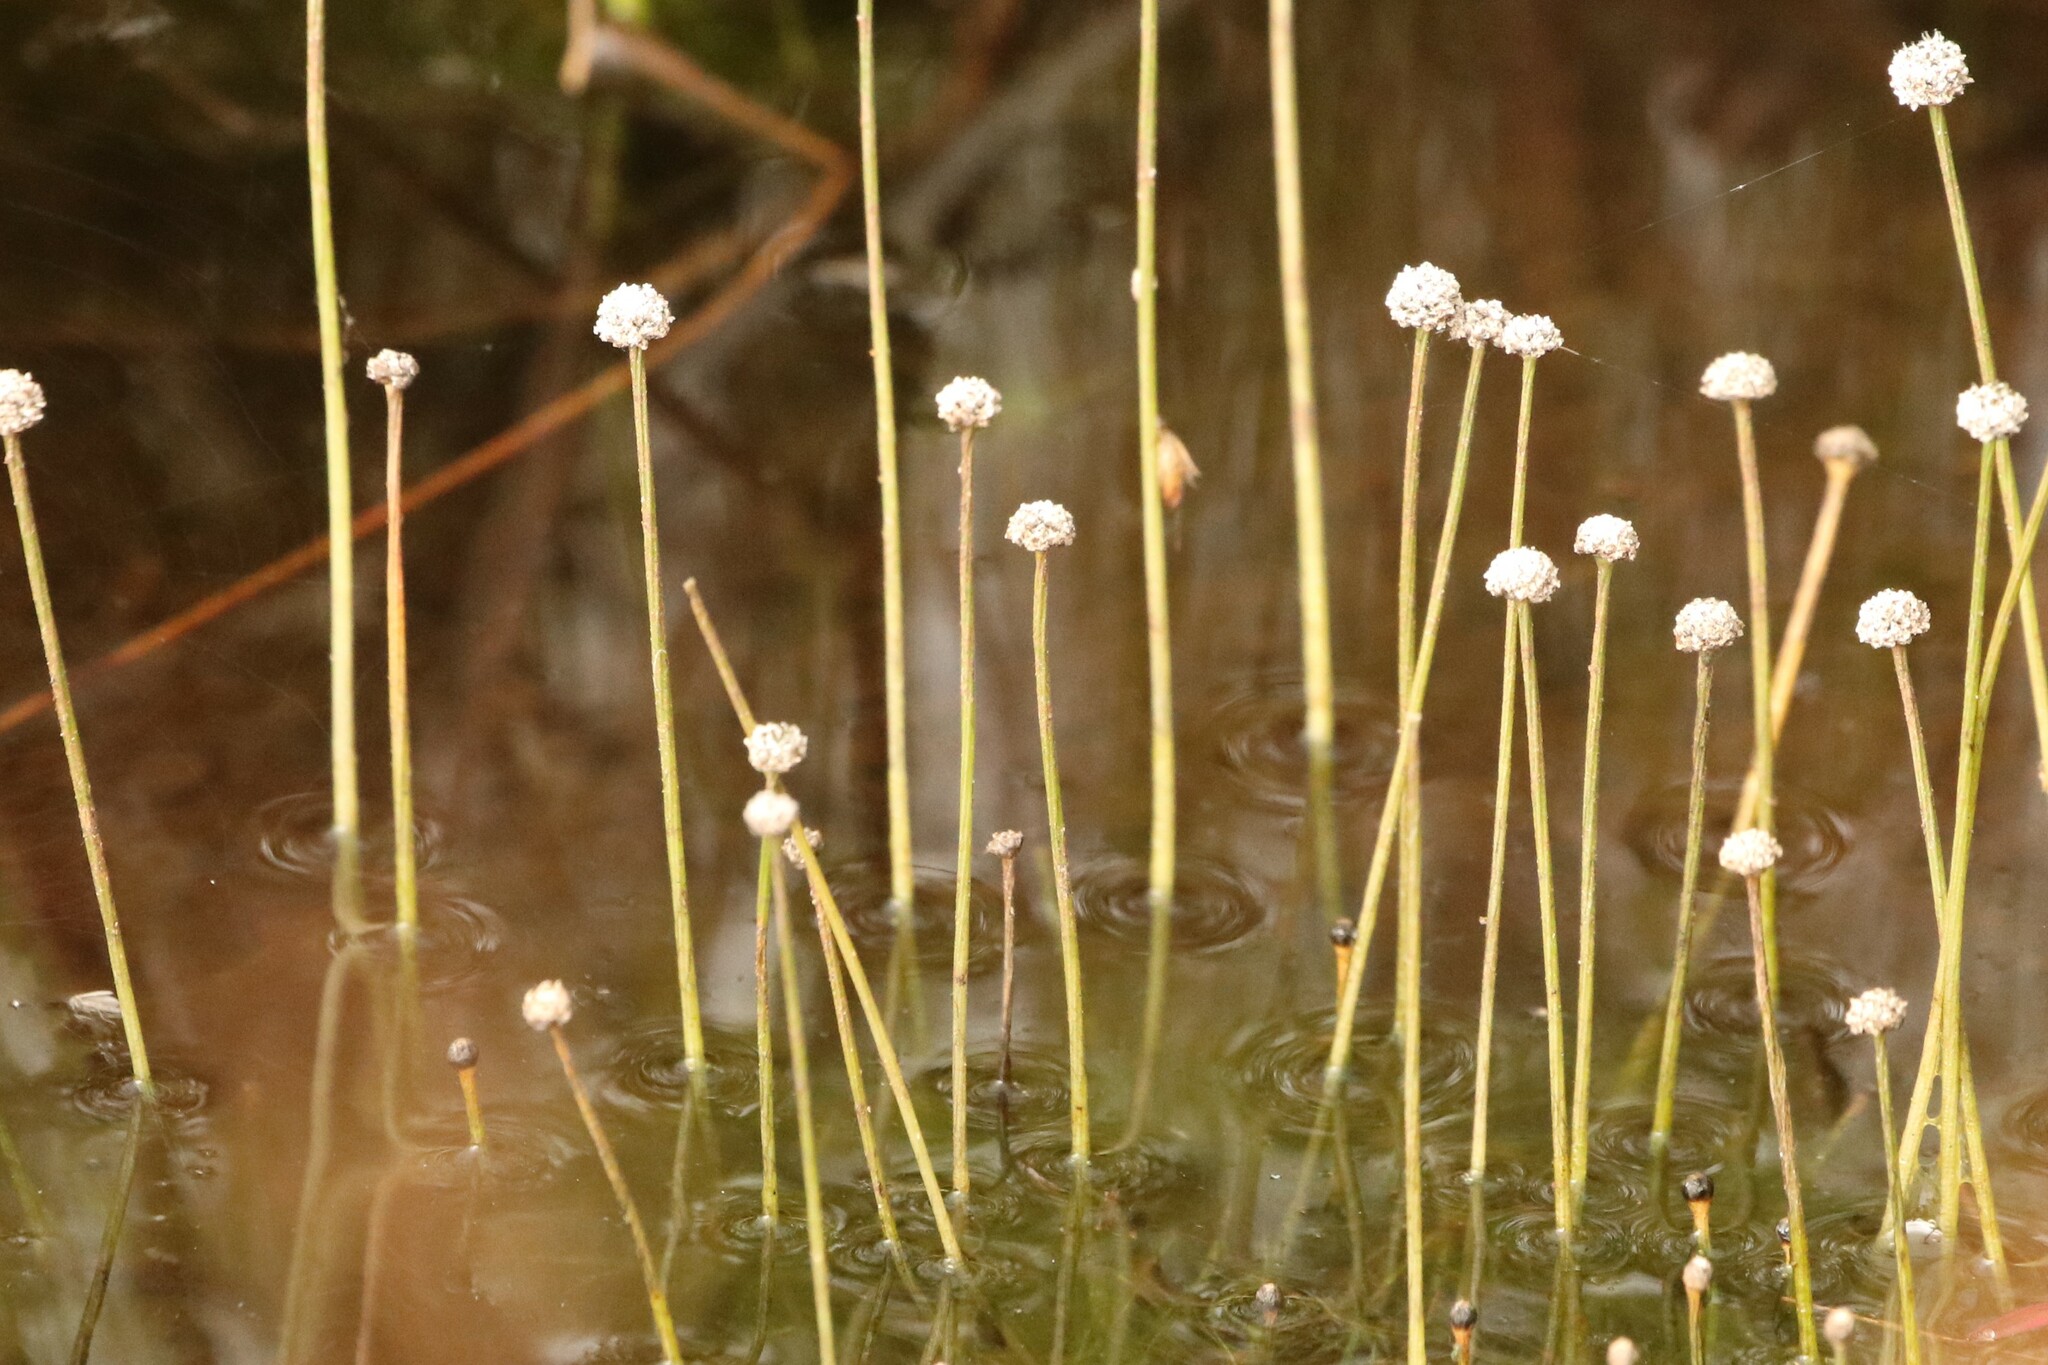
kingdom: Plantae
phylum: Tracheophyta
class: Liliopsida
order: Poales
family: Eriocaulaceae
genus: Eriocaulon
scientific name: Eriocaulon aquaticum
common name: Pipewort
